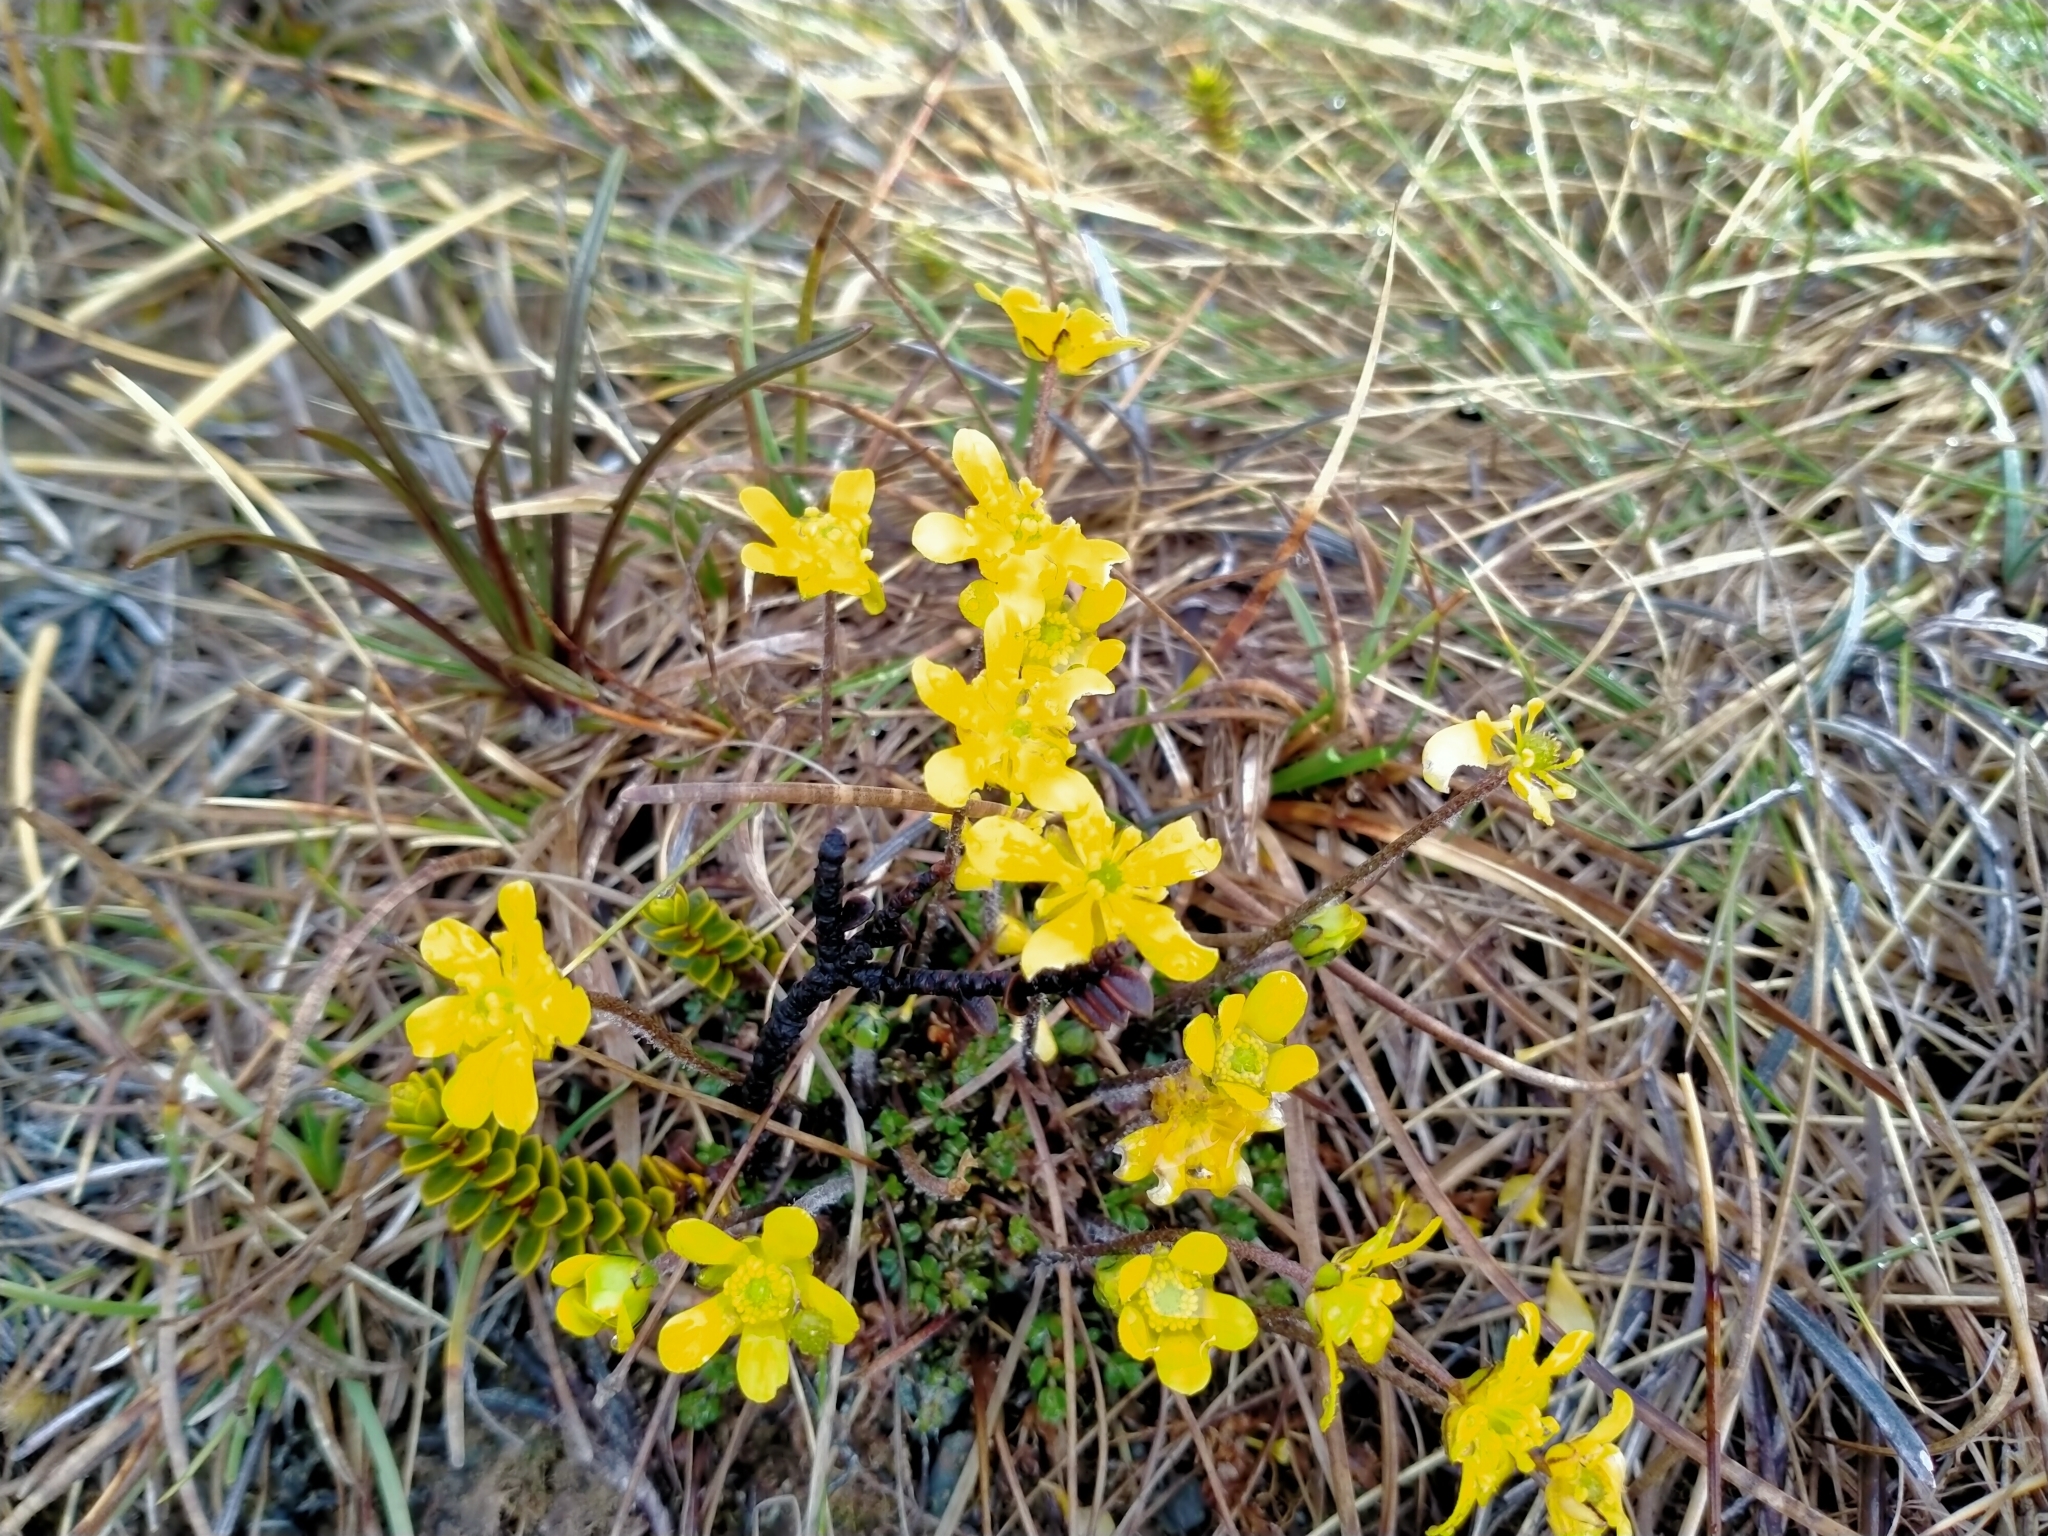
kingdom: Plantae
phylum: Tracheophyta
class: Magnoliopsida
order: Ranunculales
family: Ranunculaceae
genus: Ranunculus
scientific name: Ranunculus gracilipes
